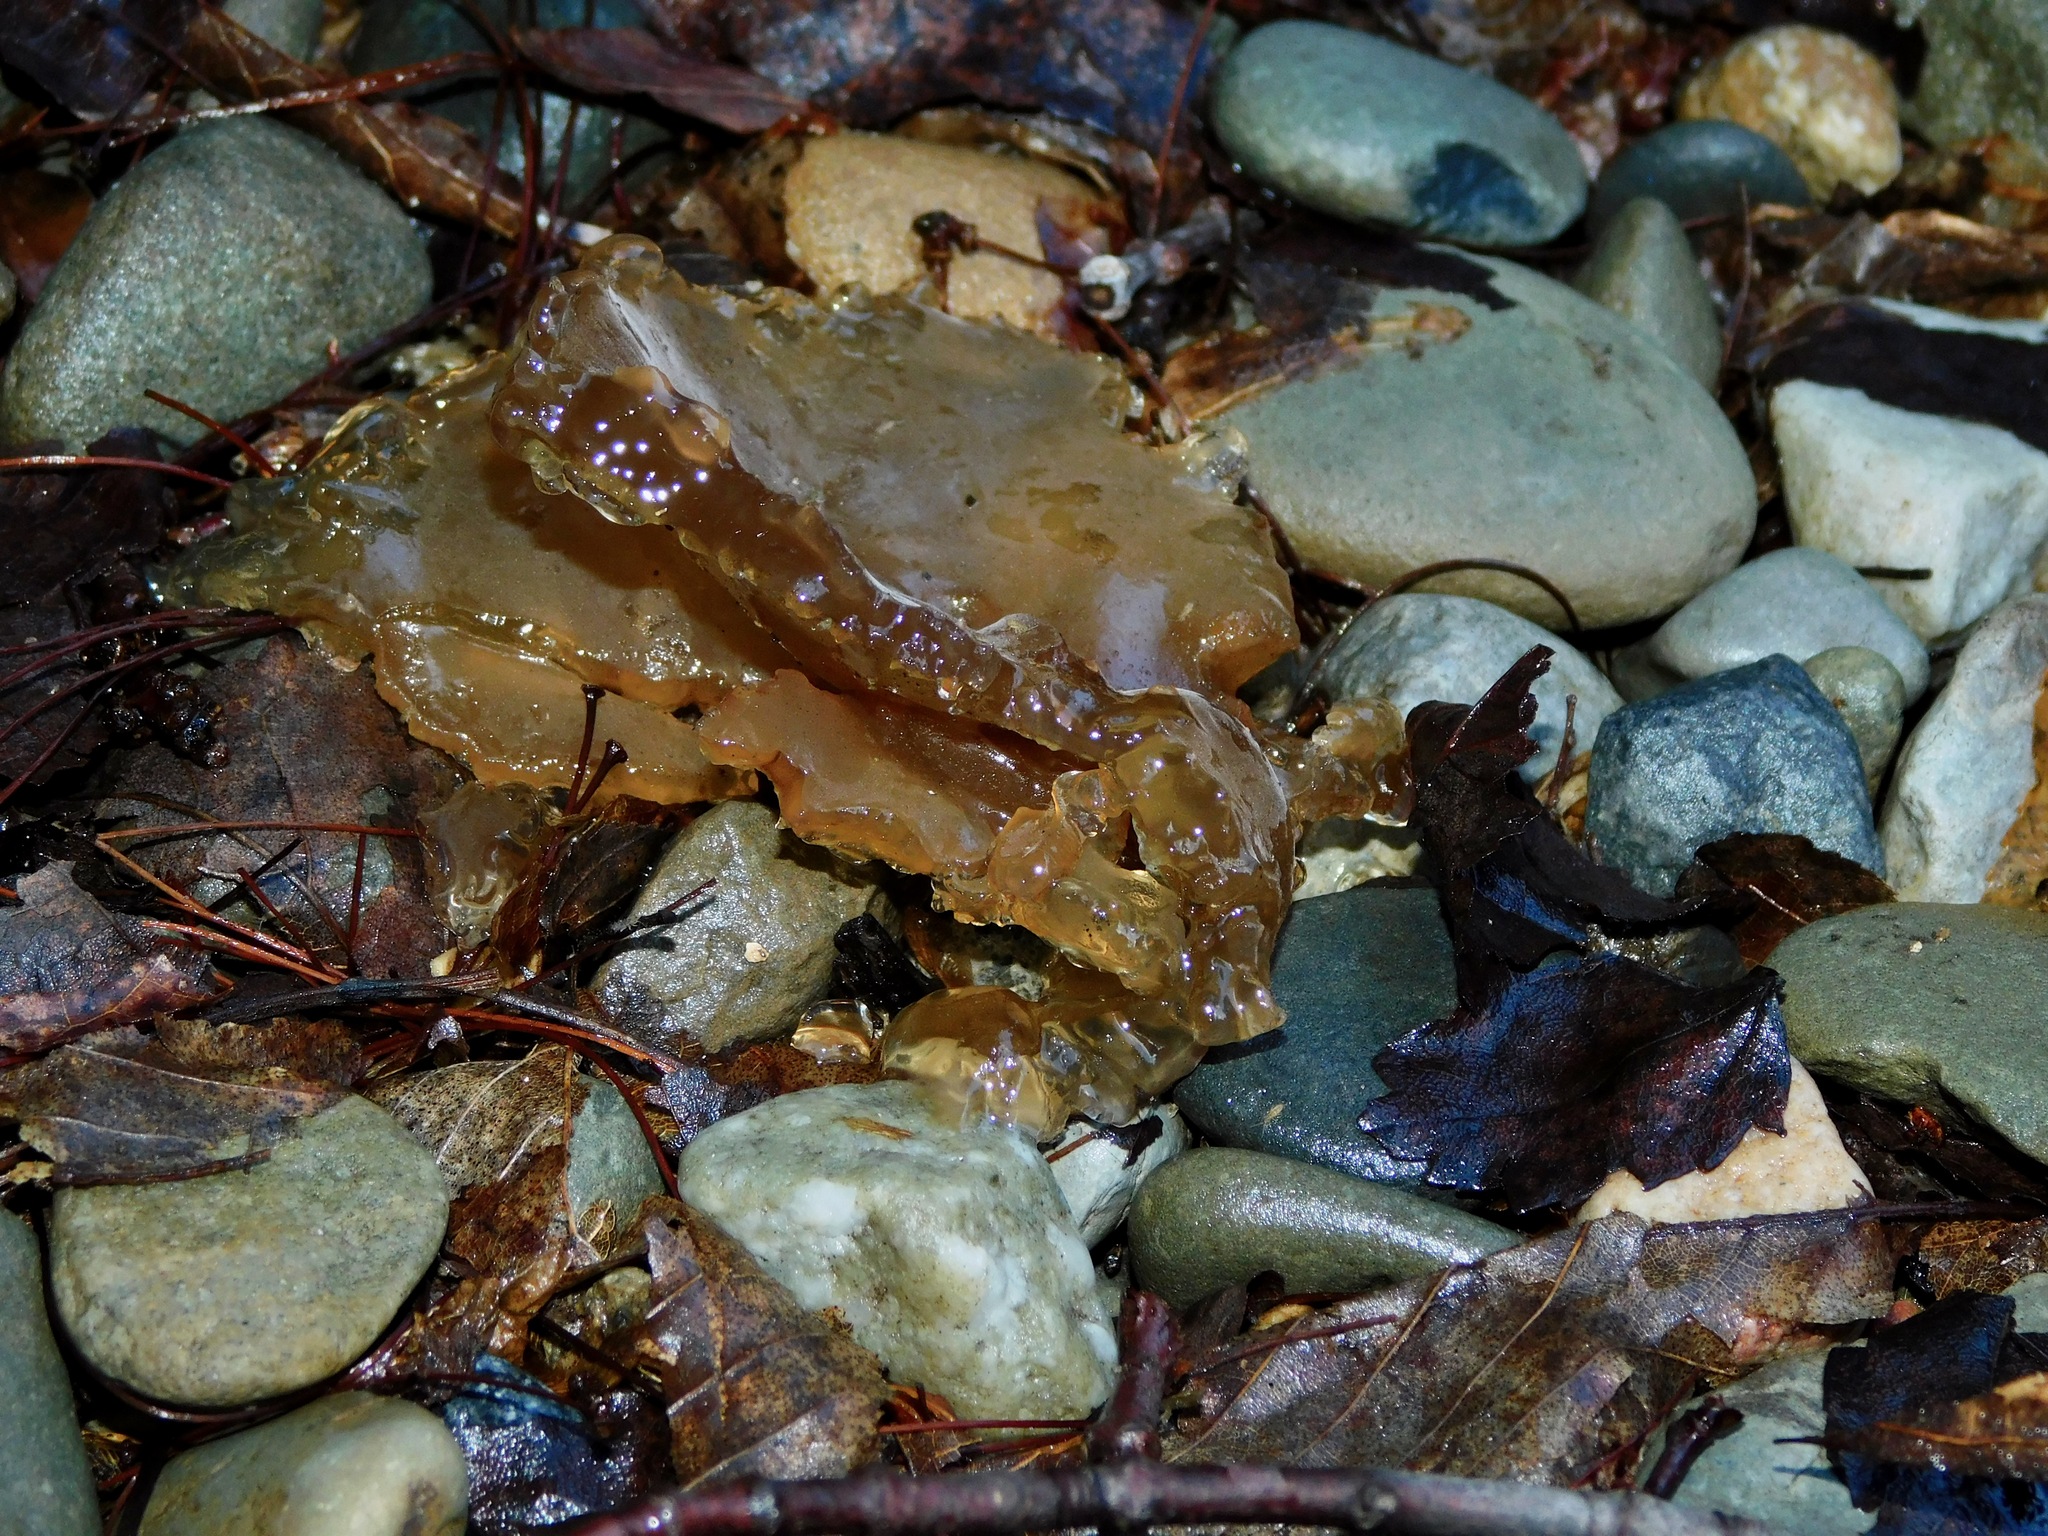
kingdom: Fungi
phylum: Basidiomycota
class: Agaricomycetes
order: Auriculariales
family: Auriculariaceae
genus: Exidia
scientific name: Exidia recisa
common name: Amber jelly
